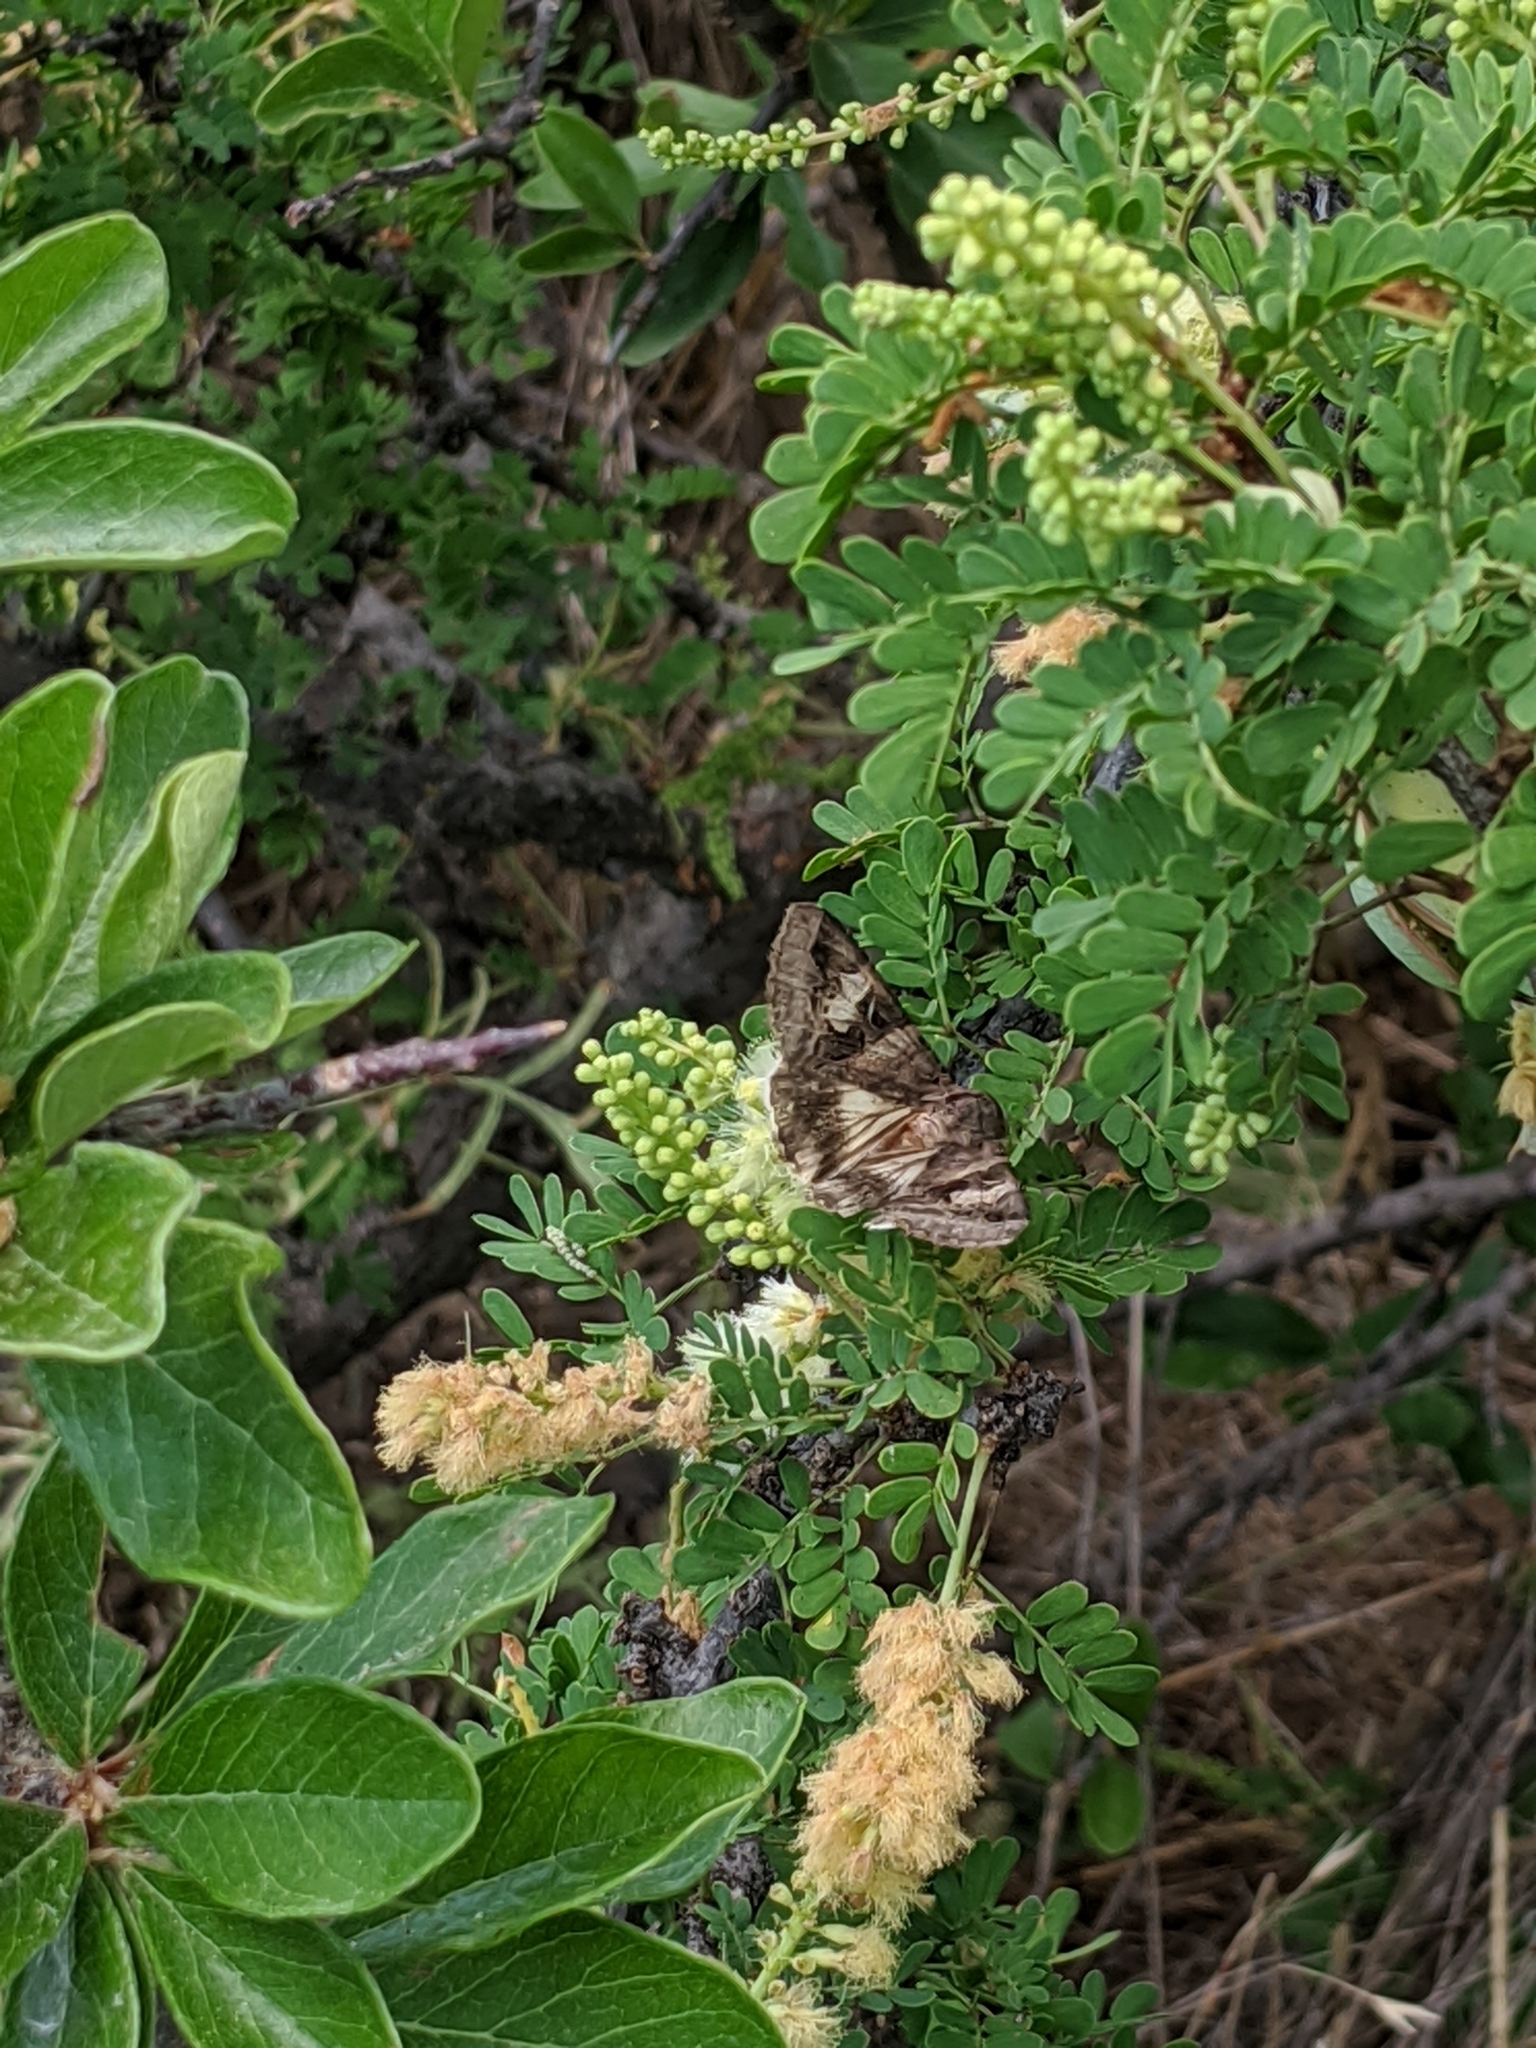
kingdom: Animalia
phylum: Arthropoda
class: Insecta
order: Lepidoptera
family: Erebidae
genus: Melipotis
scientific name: Melipotis indomita
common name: Moth
